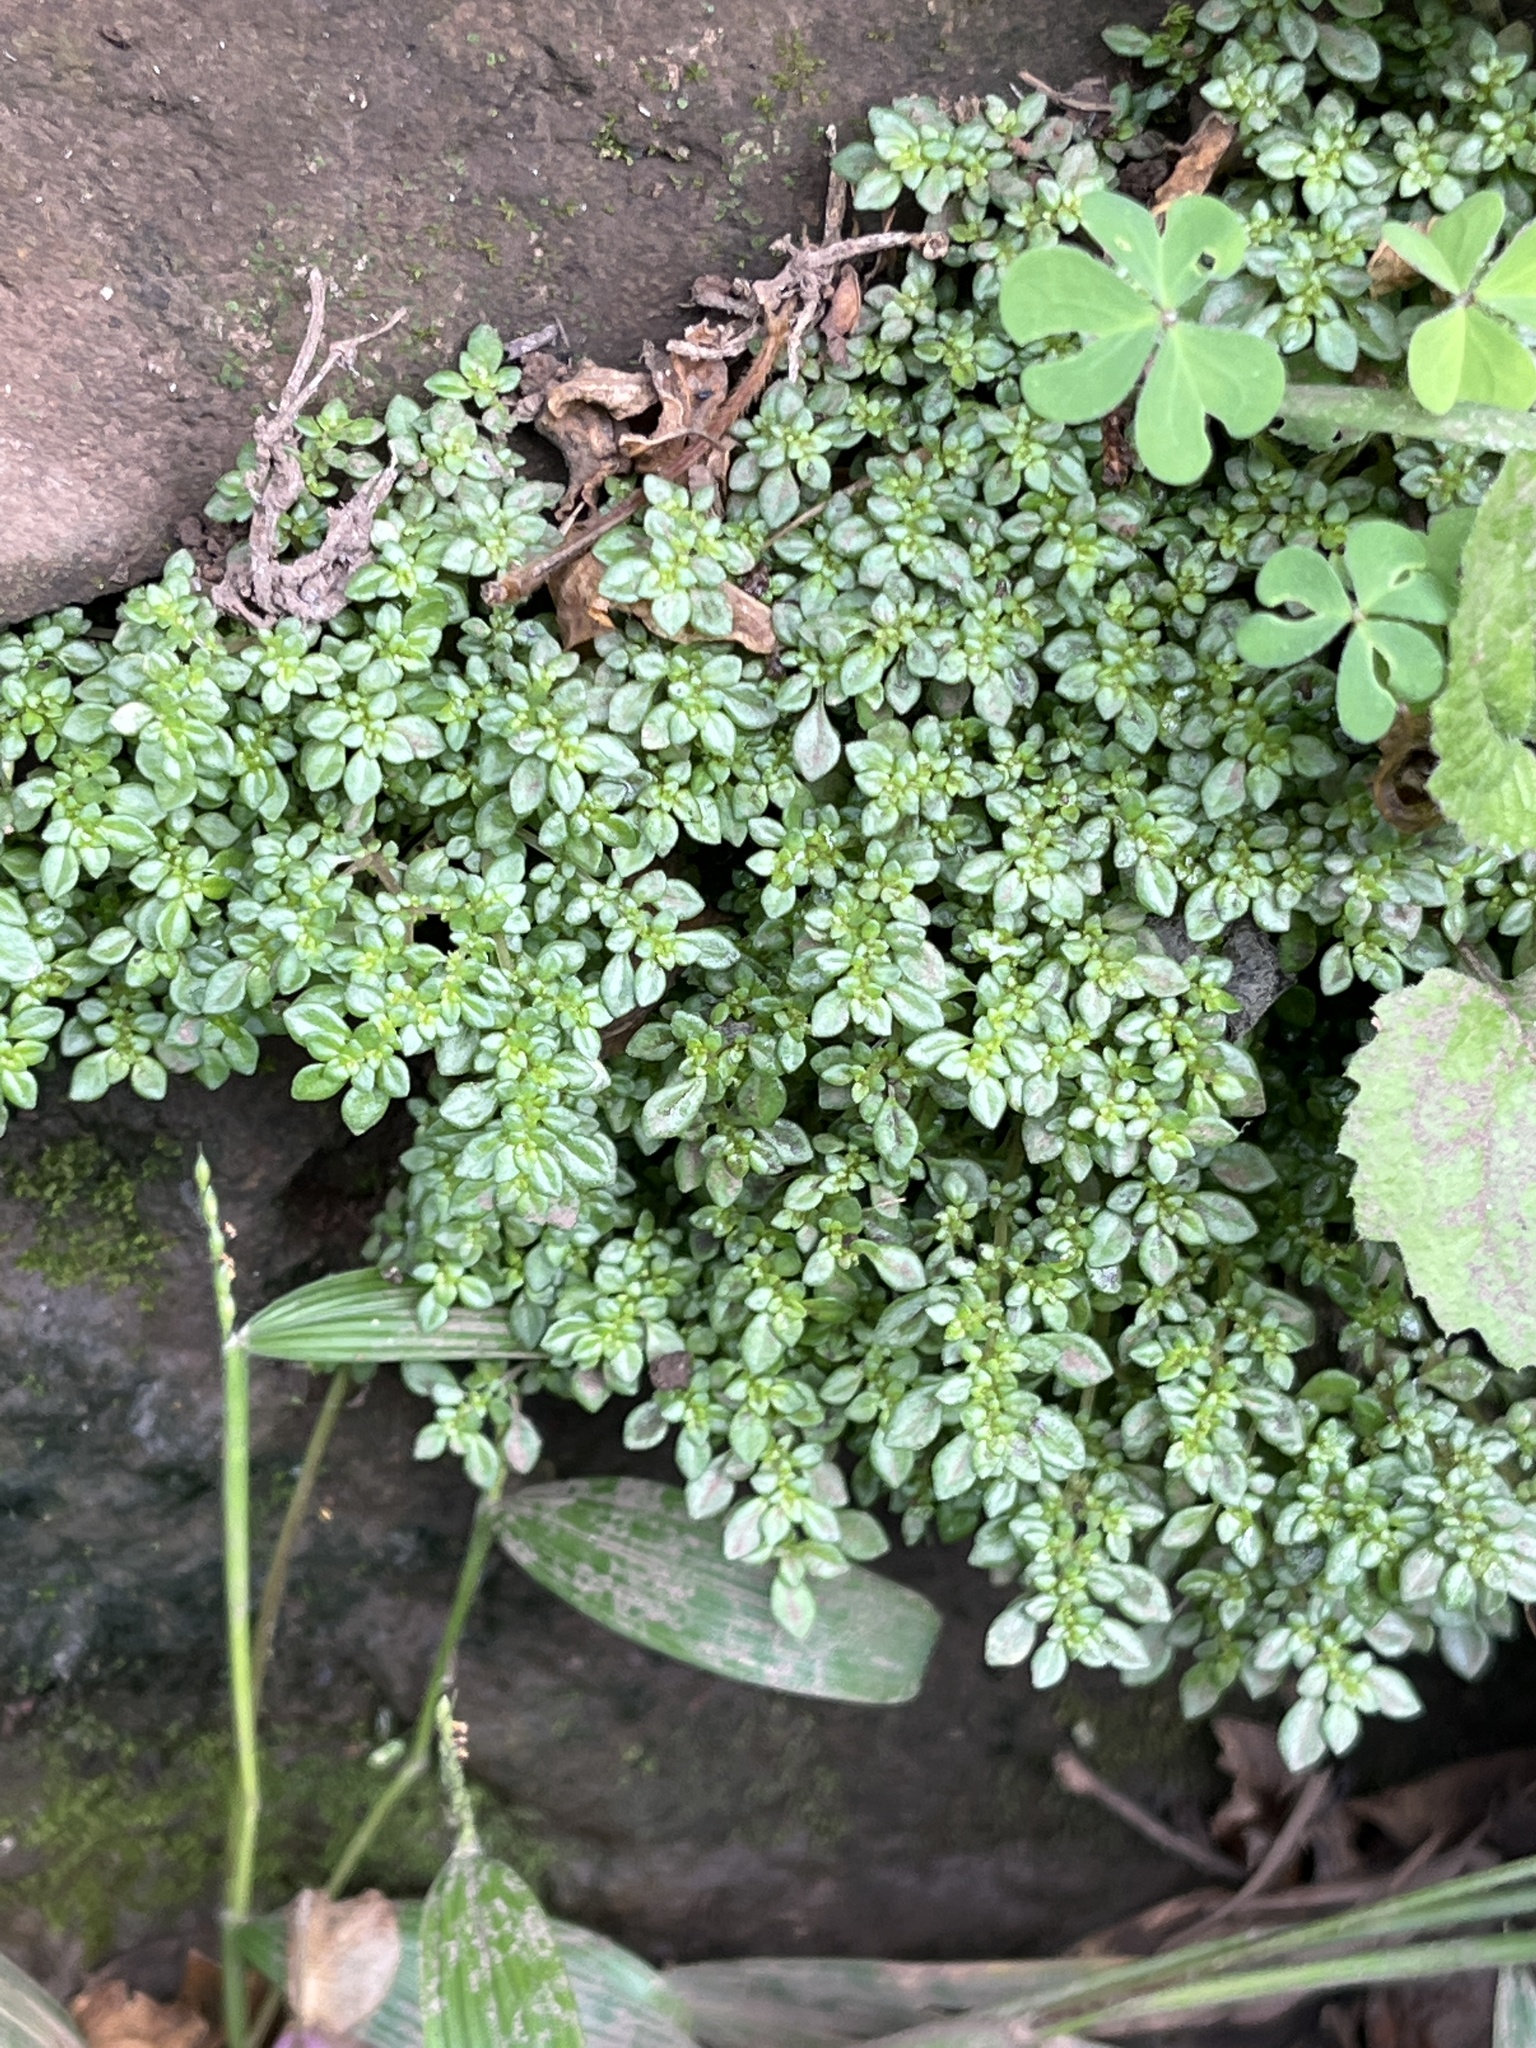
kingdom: Plantae
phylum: Tracheophyta
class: Magnoliopsida
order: Rosales
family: Urticaceae
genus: Pilea
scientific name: Pilea microphylla
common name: Artillery-plant
